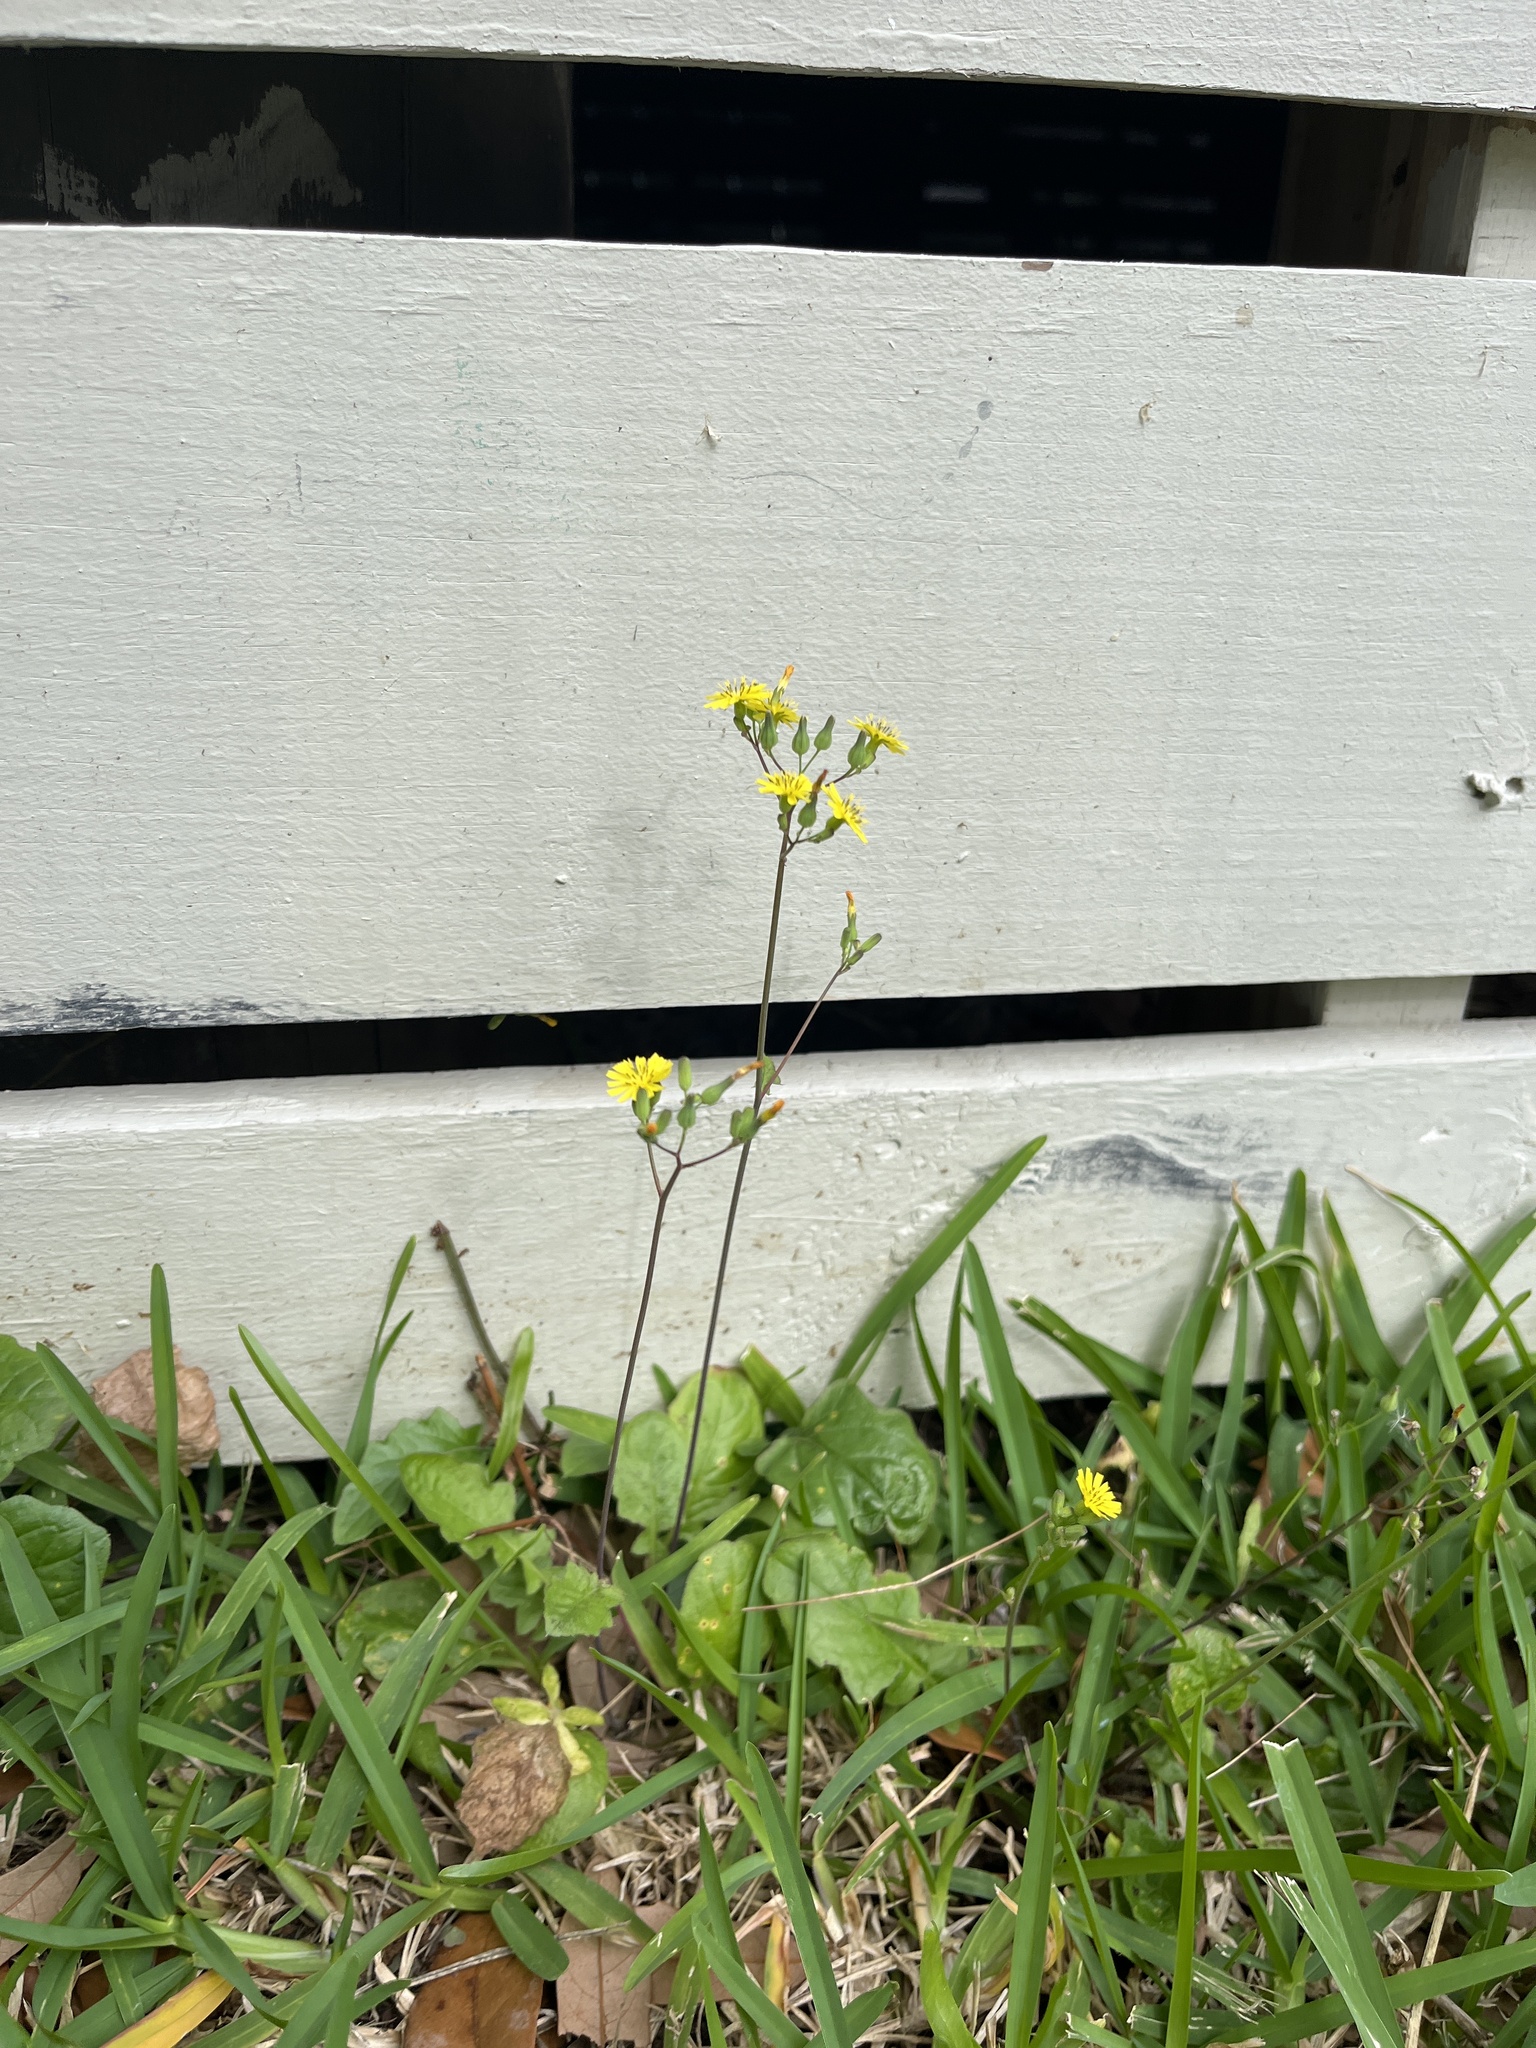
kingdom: Plantae
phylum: Tracheophyta
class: Magnoliopsida
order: Asterales
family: Asteraceae
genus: Youngia
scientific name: Youngia japonica
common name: Oriental false hawksbeard
